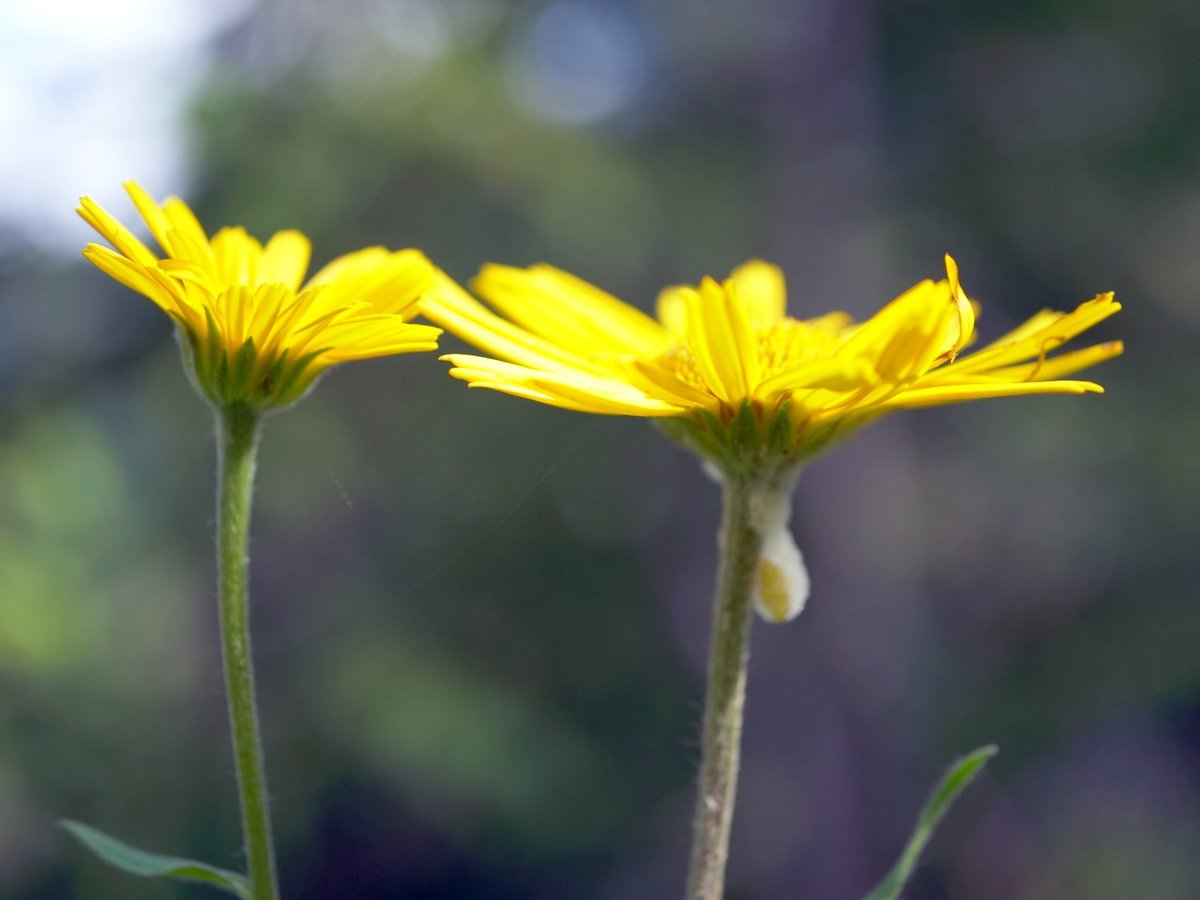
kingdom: Plantae
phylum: Tracheophyta
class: Magnoliopsida
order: Asterales
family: Asteraceae
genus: Buphthalmum
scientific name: Buphthalmum salicifolium
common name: Willow-leaved yellow-oxeye
